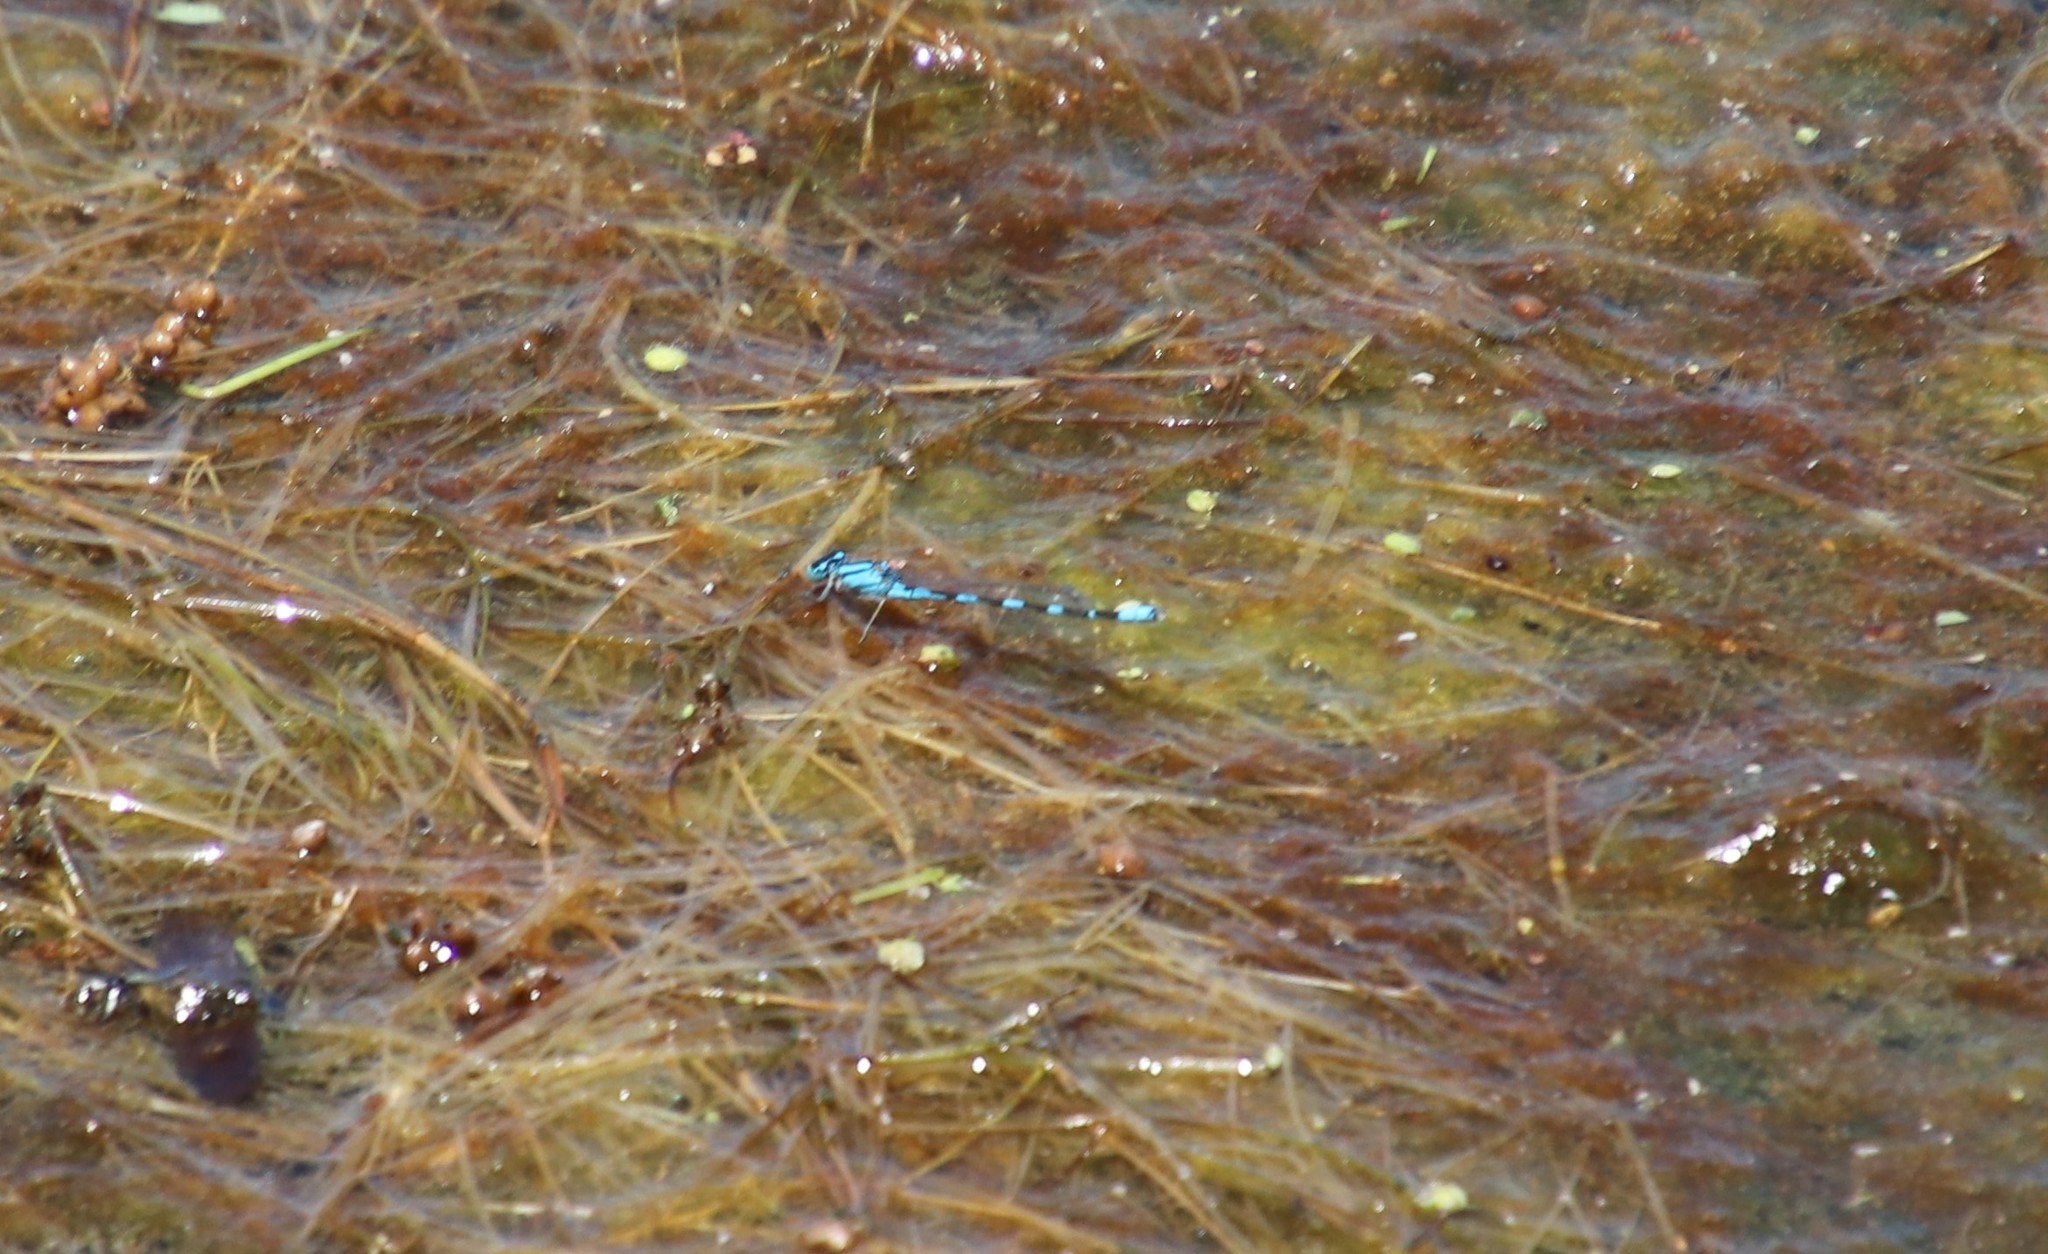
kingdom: Animalia
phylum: Arthropoda
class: Insecta
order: Odonata
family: Coenagrionidae
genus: Enallagma
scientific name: Enallagma carunculatum
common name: Tule bluet
